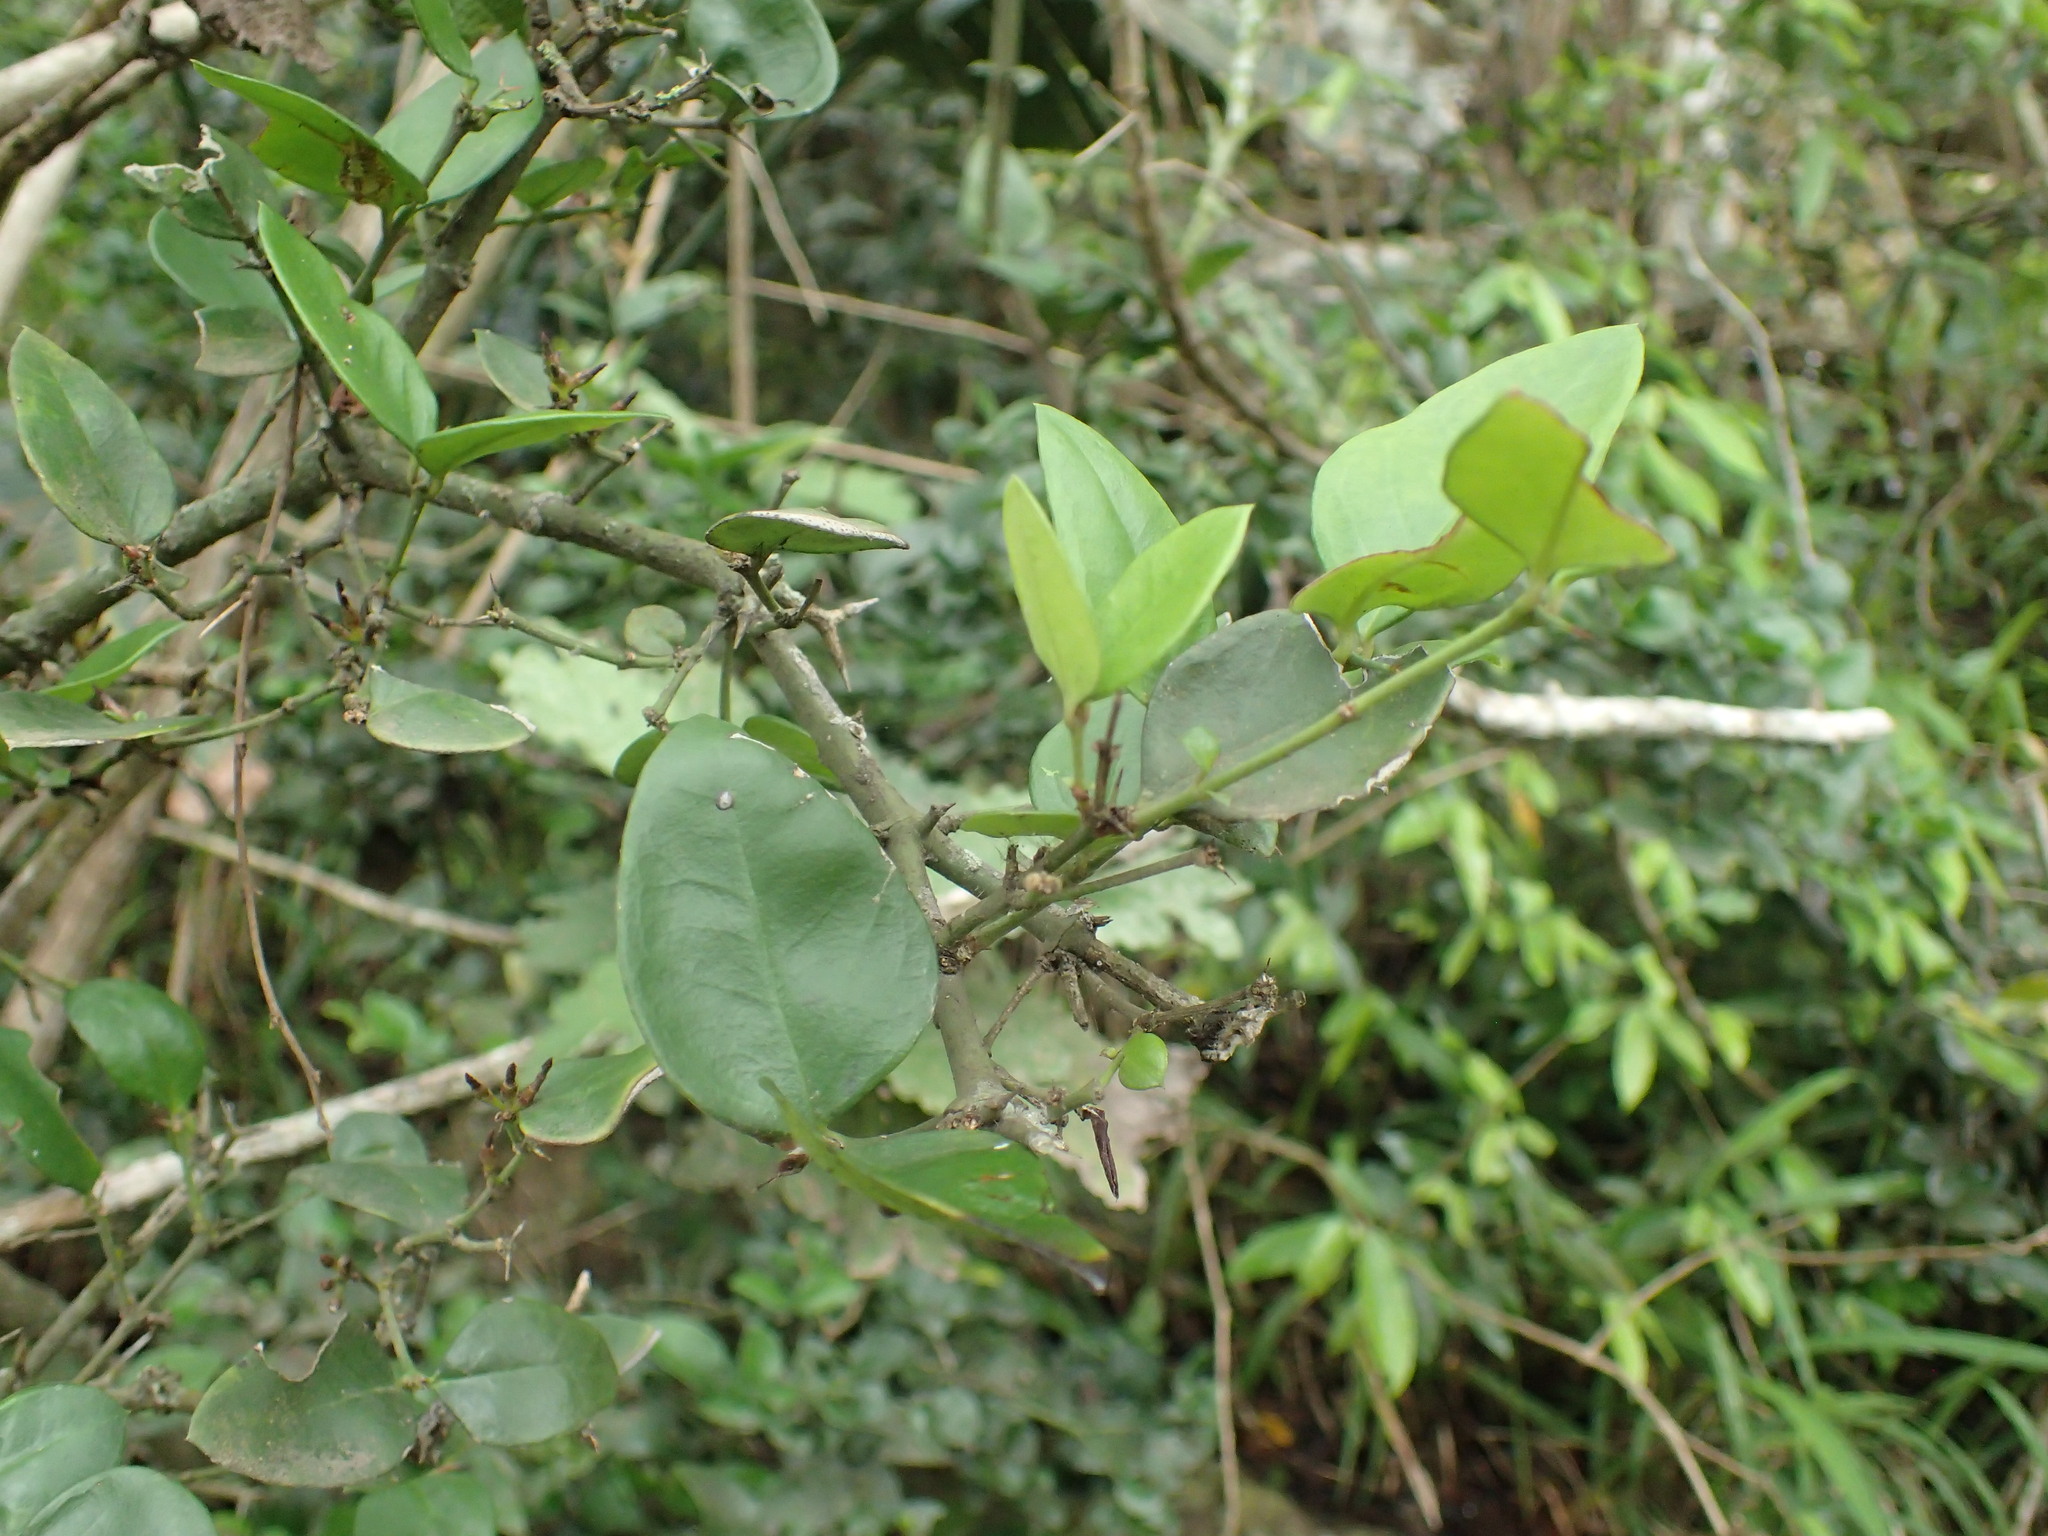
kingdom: Plantae
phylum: Tracheophyta
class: Magnoliopsida
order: Gentianales
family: Apocynaceae
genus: Carissa
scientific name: Carissa bispinosa
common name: Forest num-num
